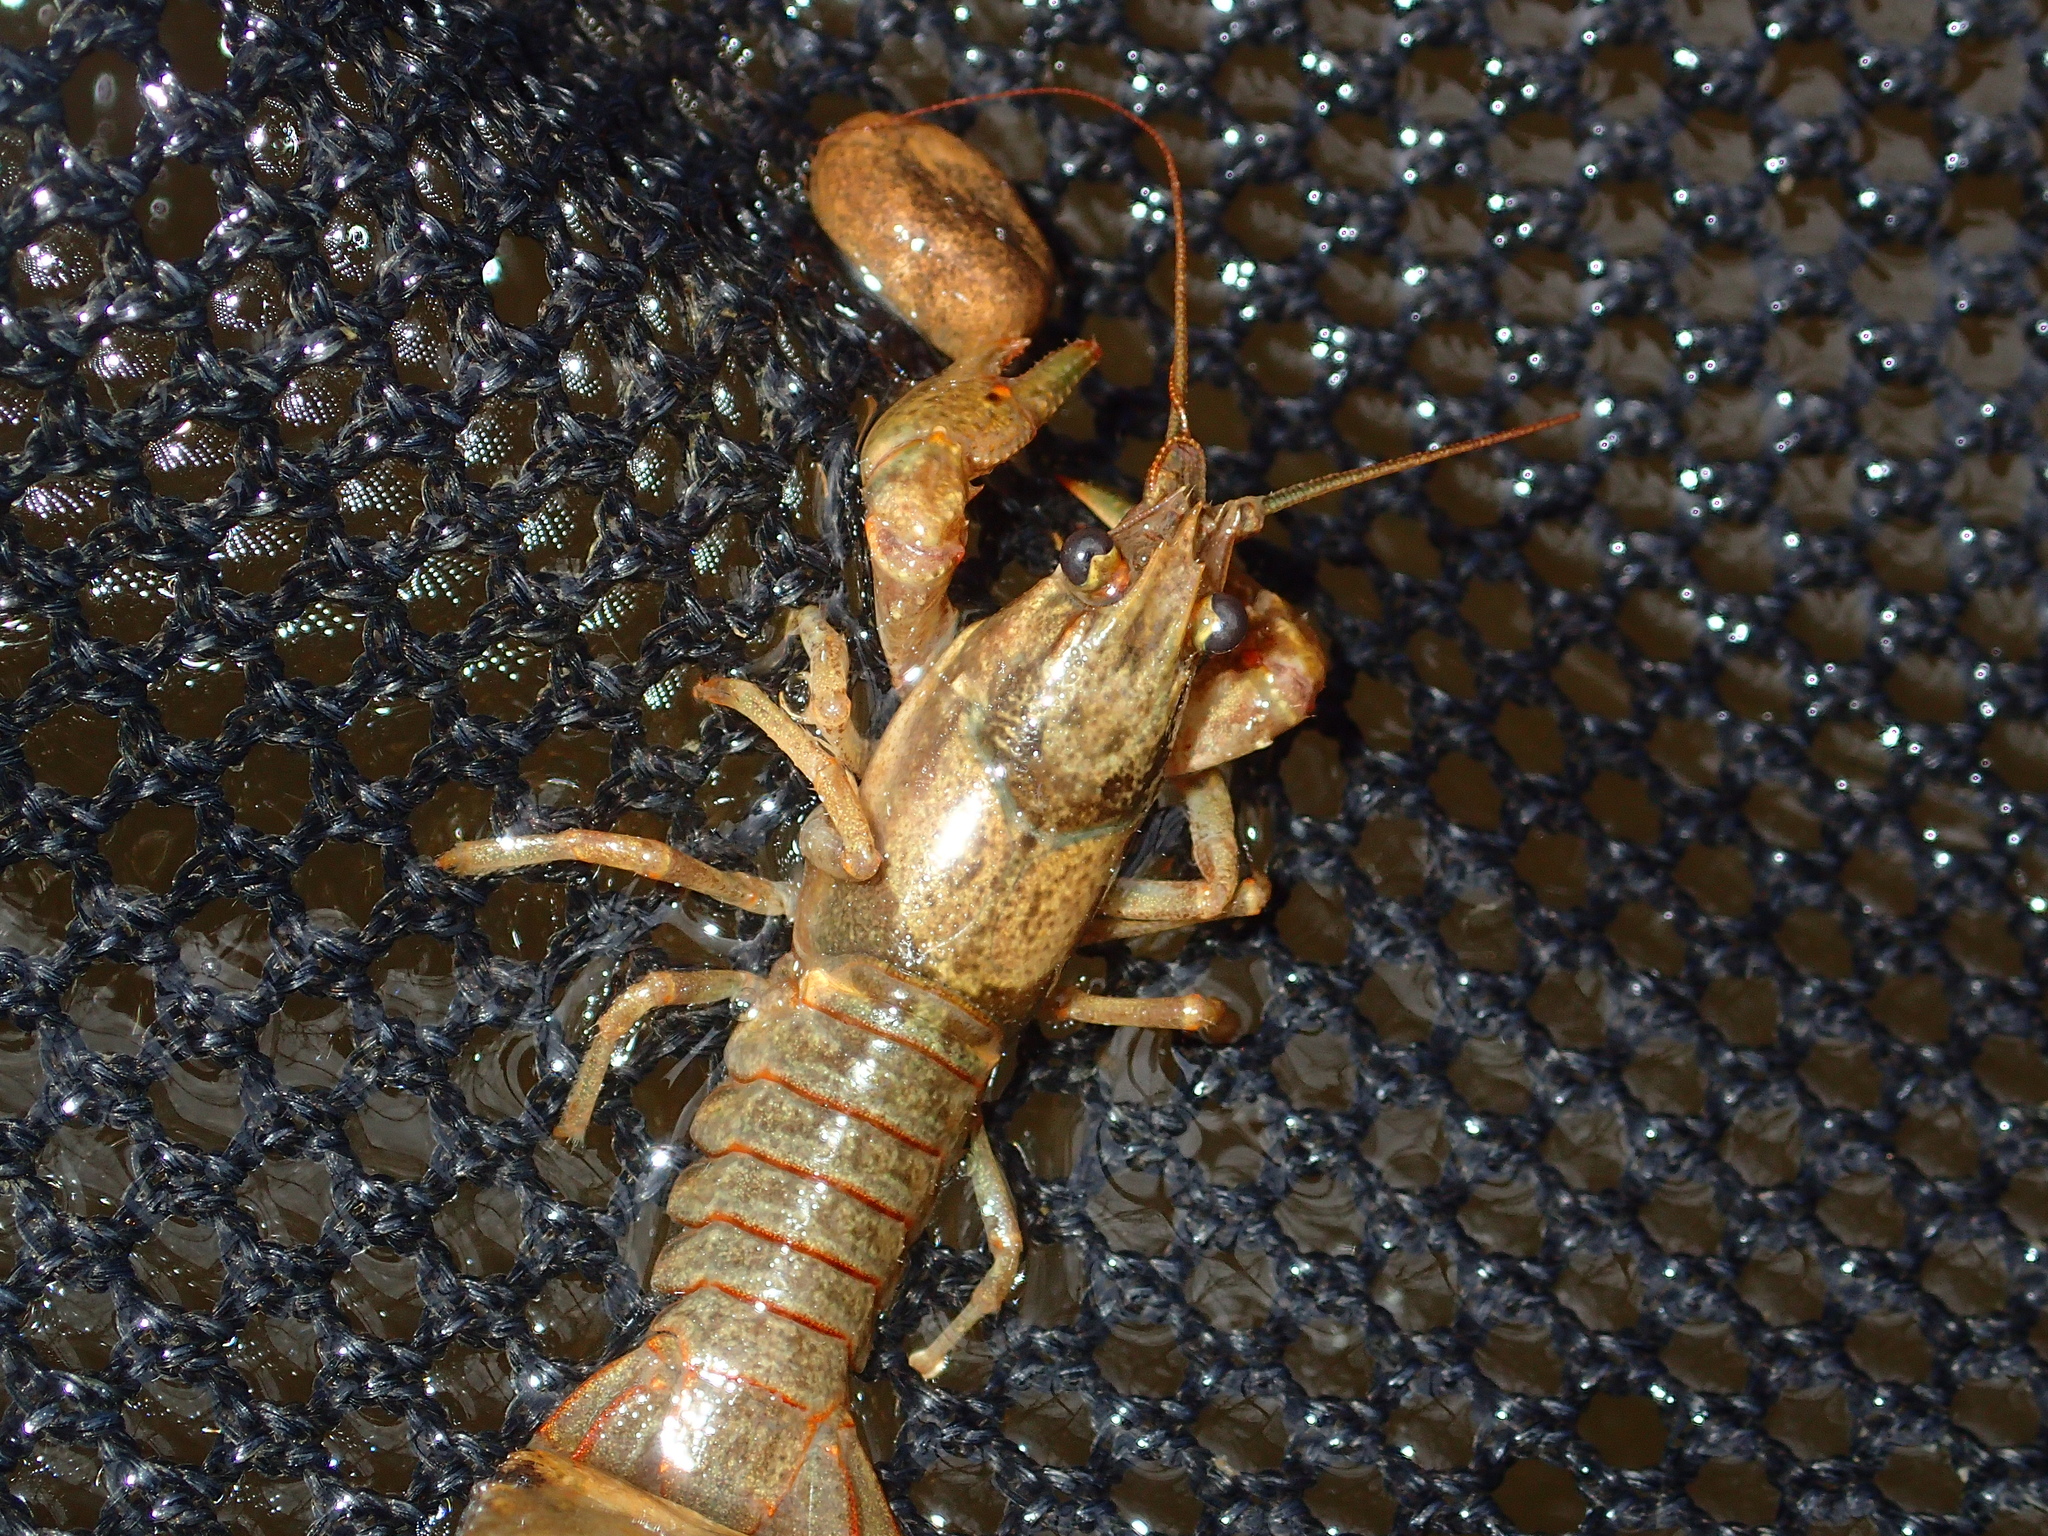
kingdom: Animalia
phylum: Arthropoda
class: Malacostraca
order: Decapoda
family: Cambaridae
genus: Faxonius
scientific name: Faxonius punctimanus
